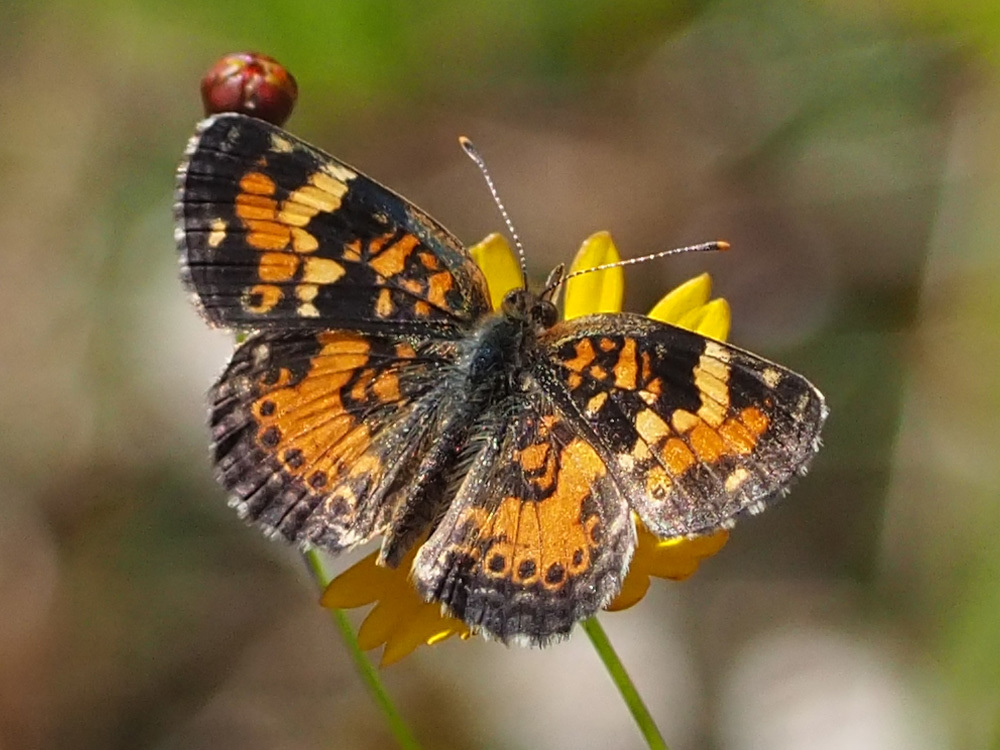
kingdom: Animalia
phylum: Arthropoda
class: Insecta
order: Lepidoptera
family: Nymphalidae
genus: Phyciodes
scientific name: Phyciodes phaon
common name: Phaon crescent
